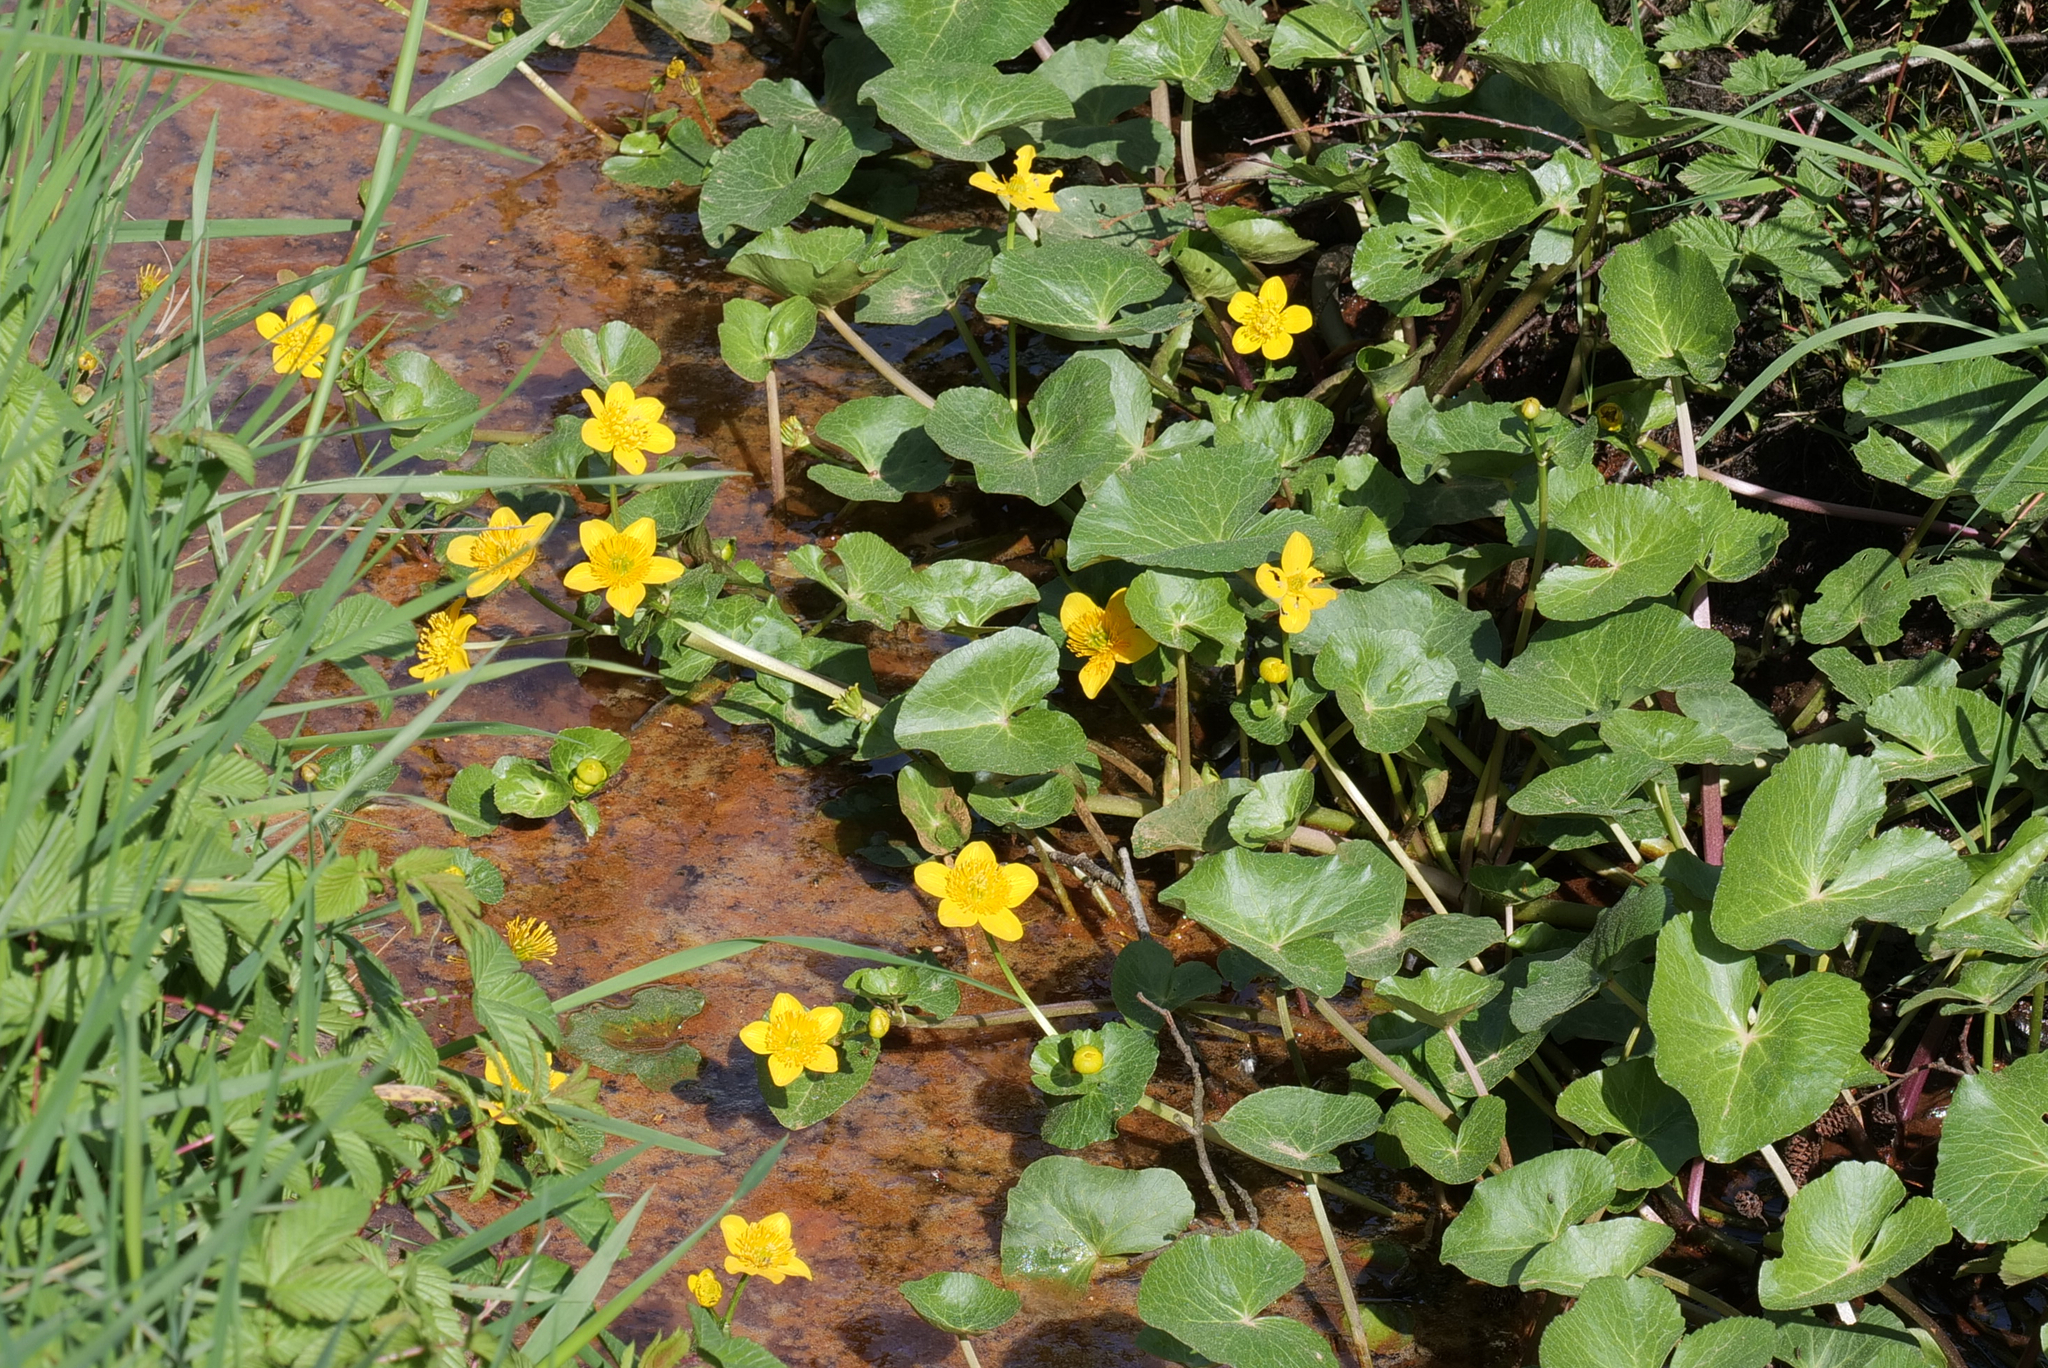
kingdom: Plantae
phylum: Tracheophyta
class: Magnoliopsida
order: Ranunculales
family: Ranunculaceae
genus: Caltha
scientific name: Caltha palustris
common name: Marsh marigold
